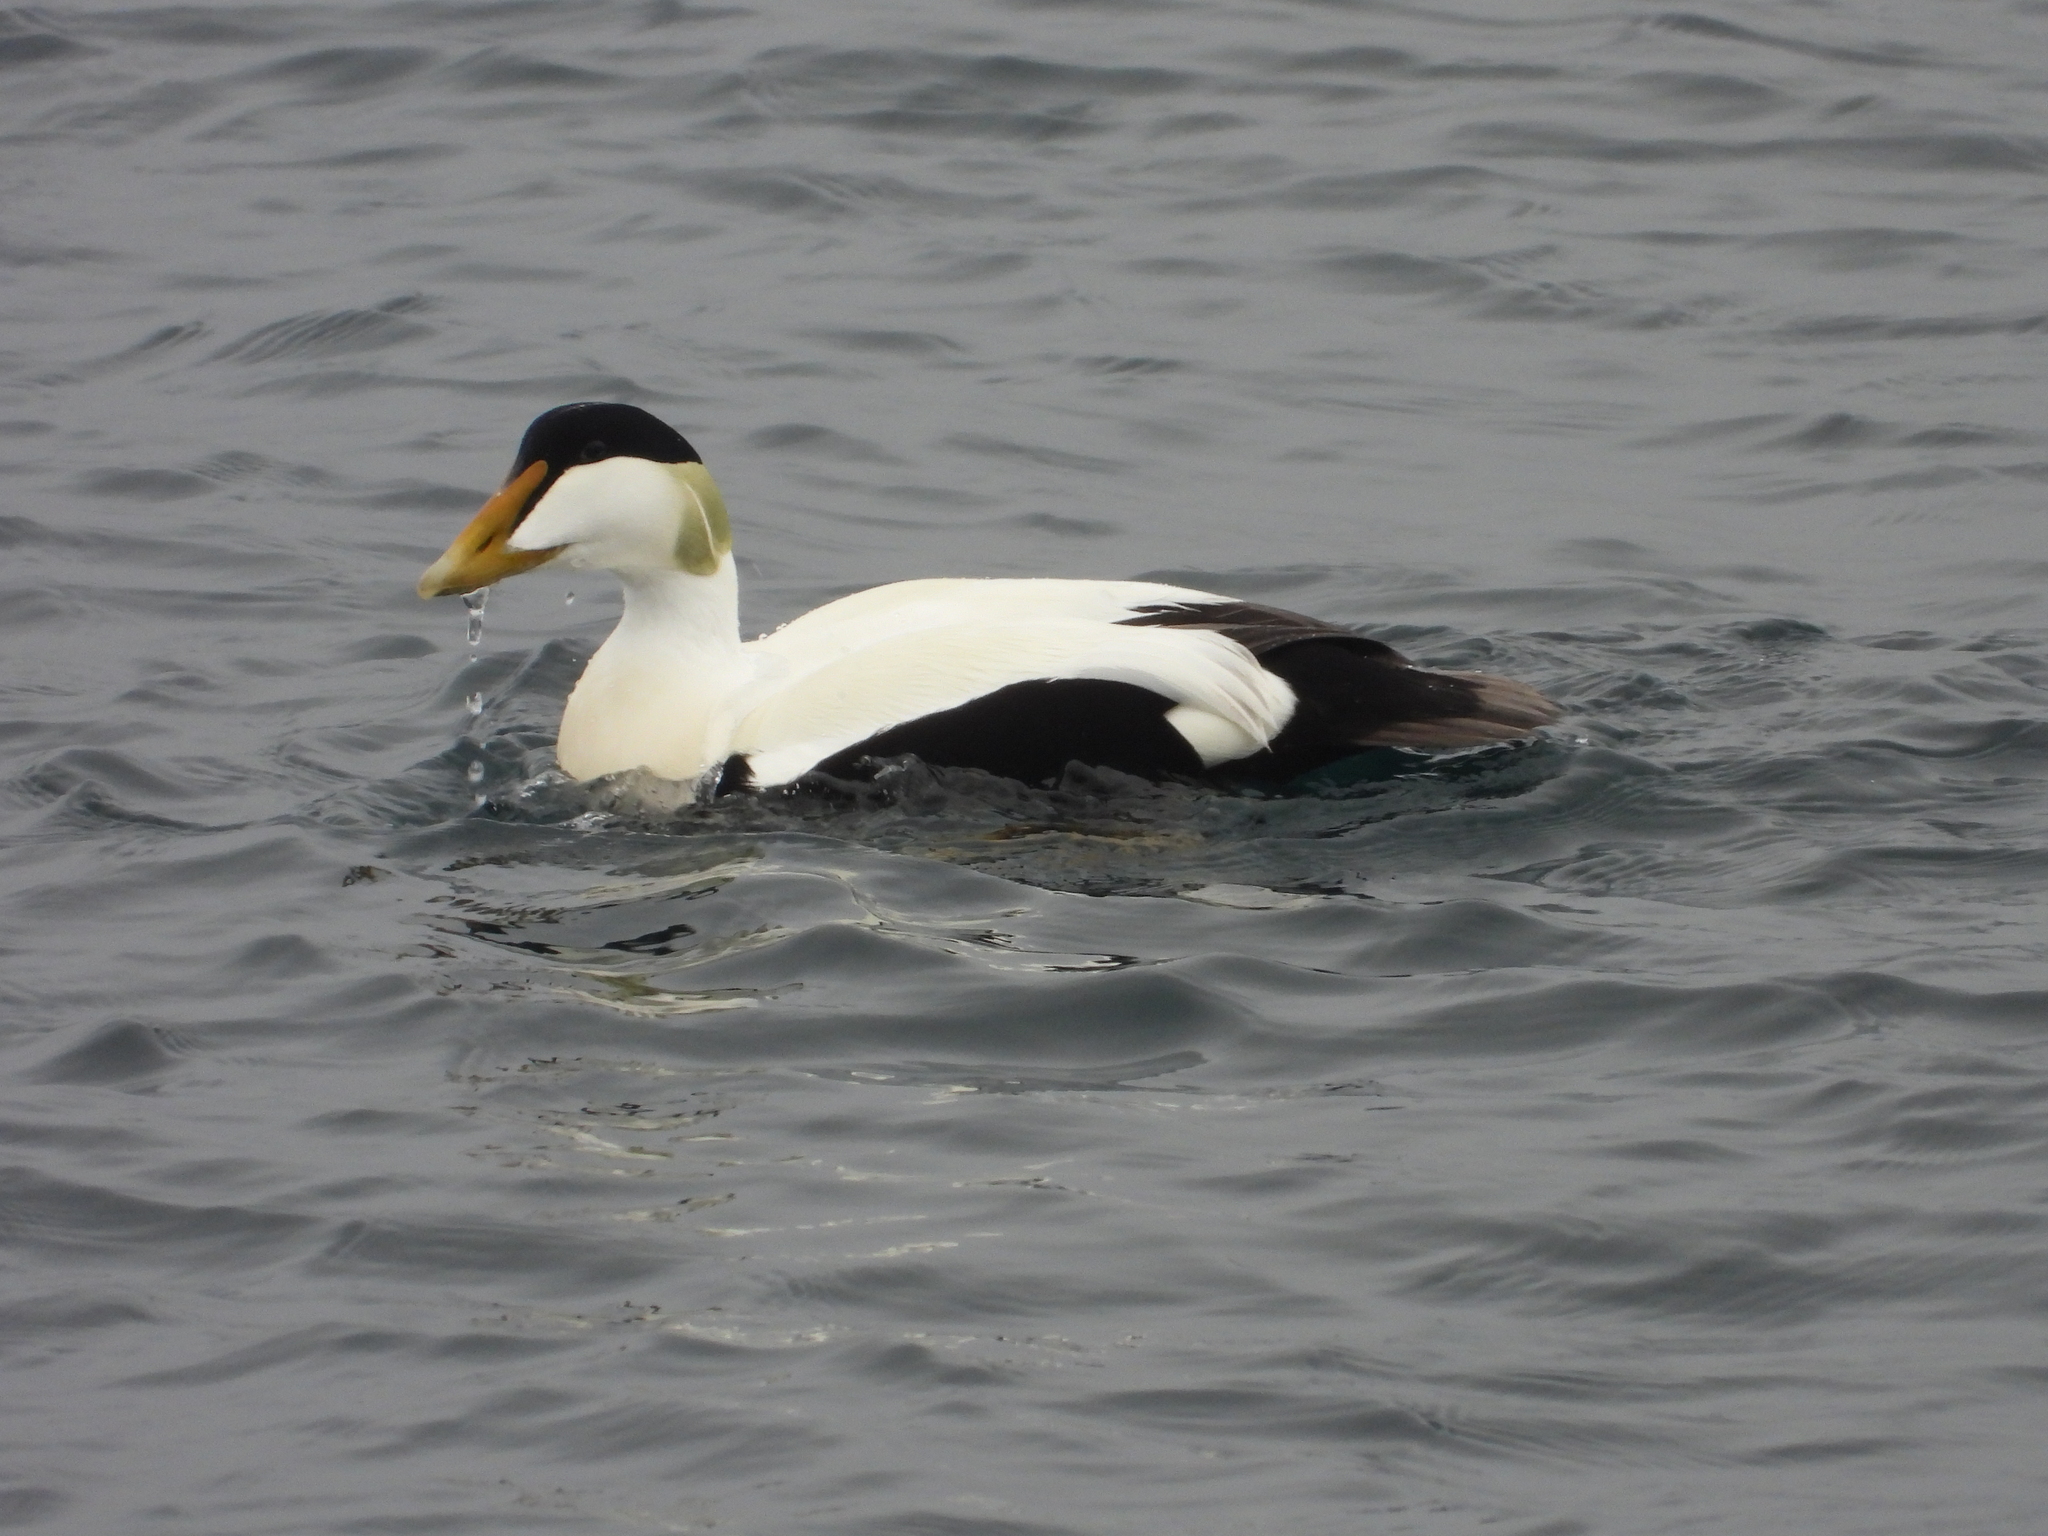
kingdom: Animalia
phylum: Chordata
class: Aves
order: Anseriformes
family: Anatidae
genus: Somateria
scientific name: Somateria mollissima
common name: Common eider
